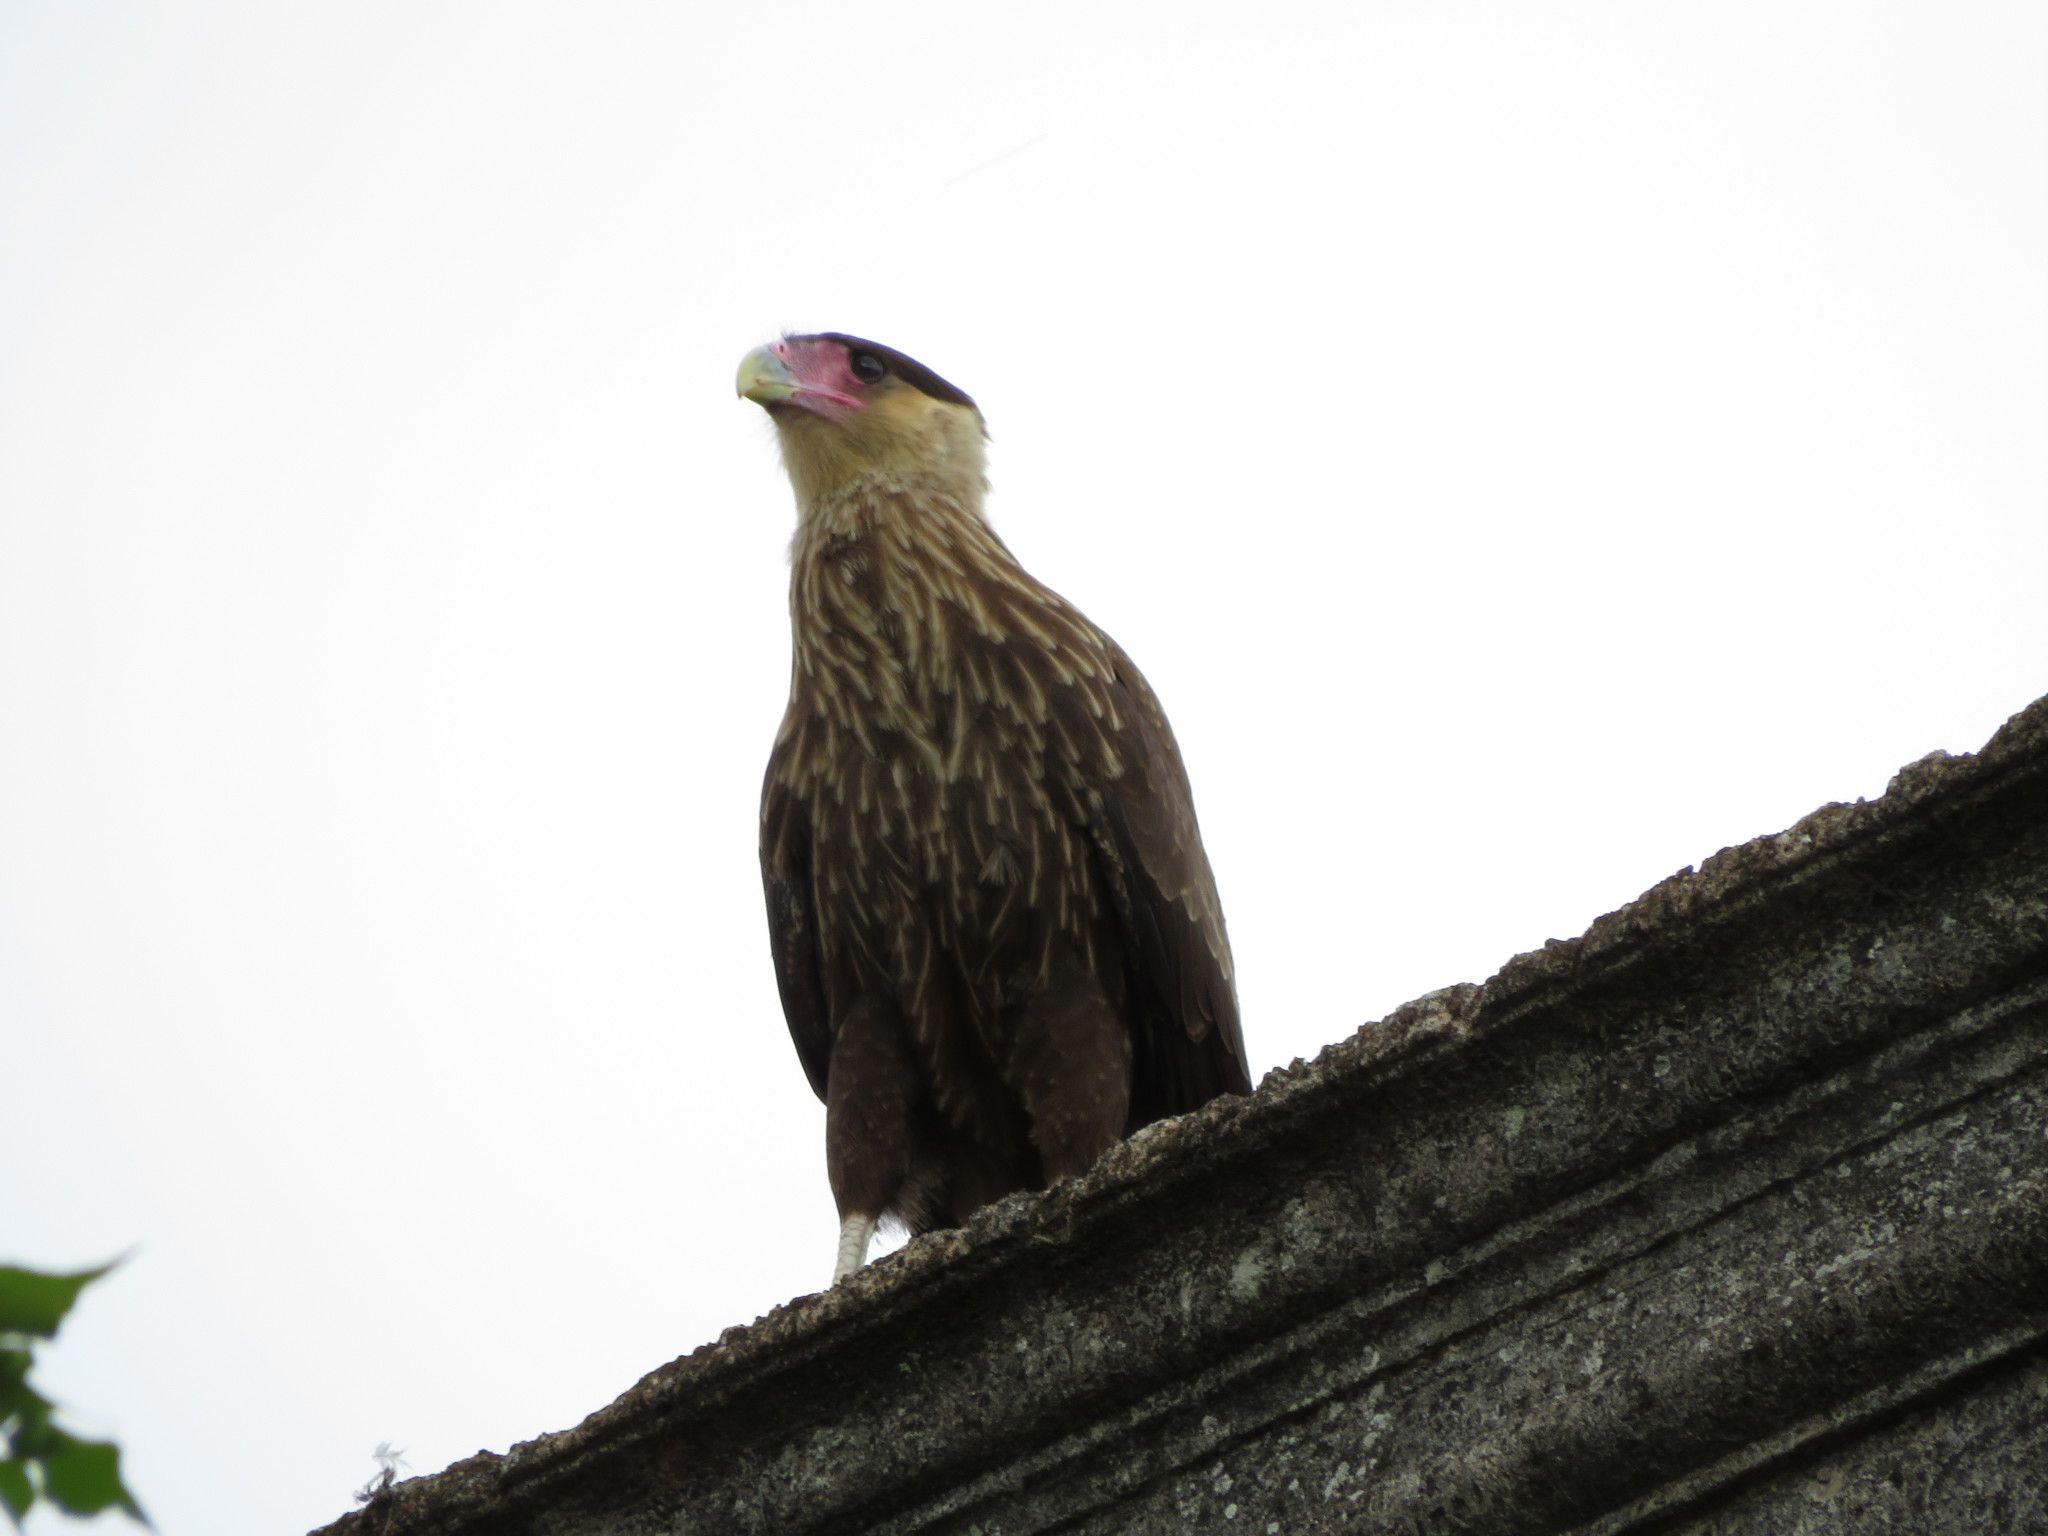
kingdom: Animalia
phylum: Chordata
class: Aves
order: Falconiformes
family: Falconidae
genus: Caracara
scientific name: Caracara plancus
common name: Southern caracara
